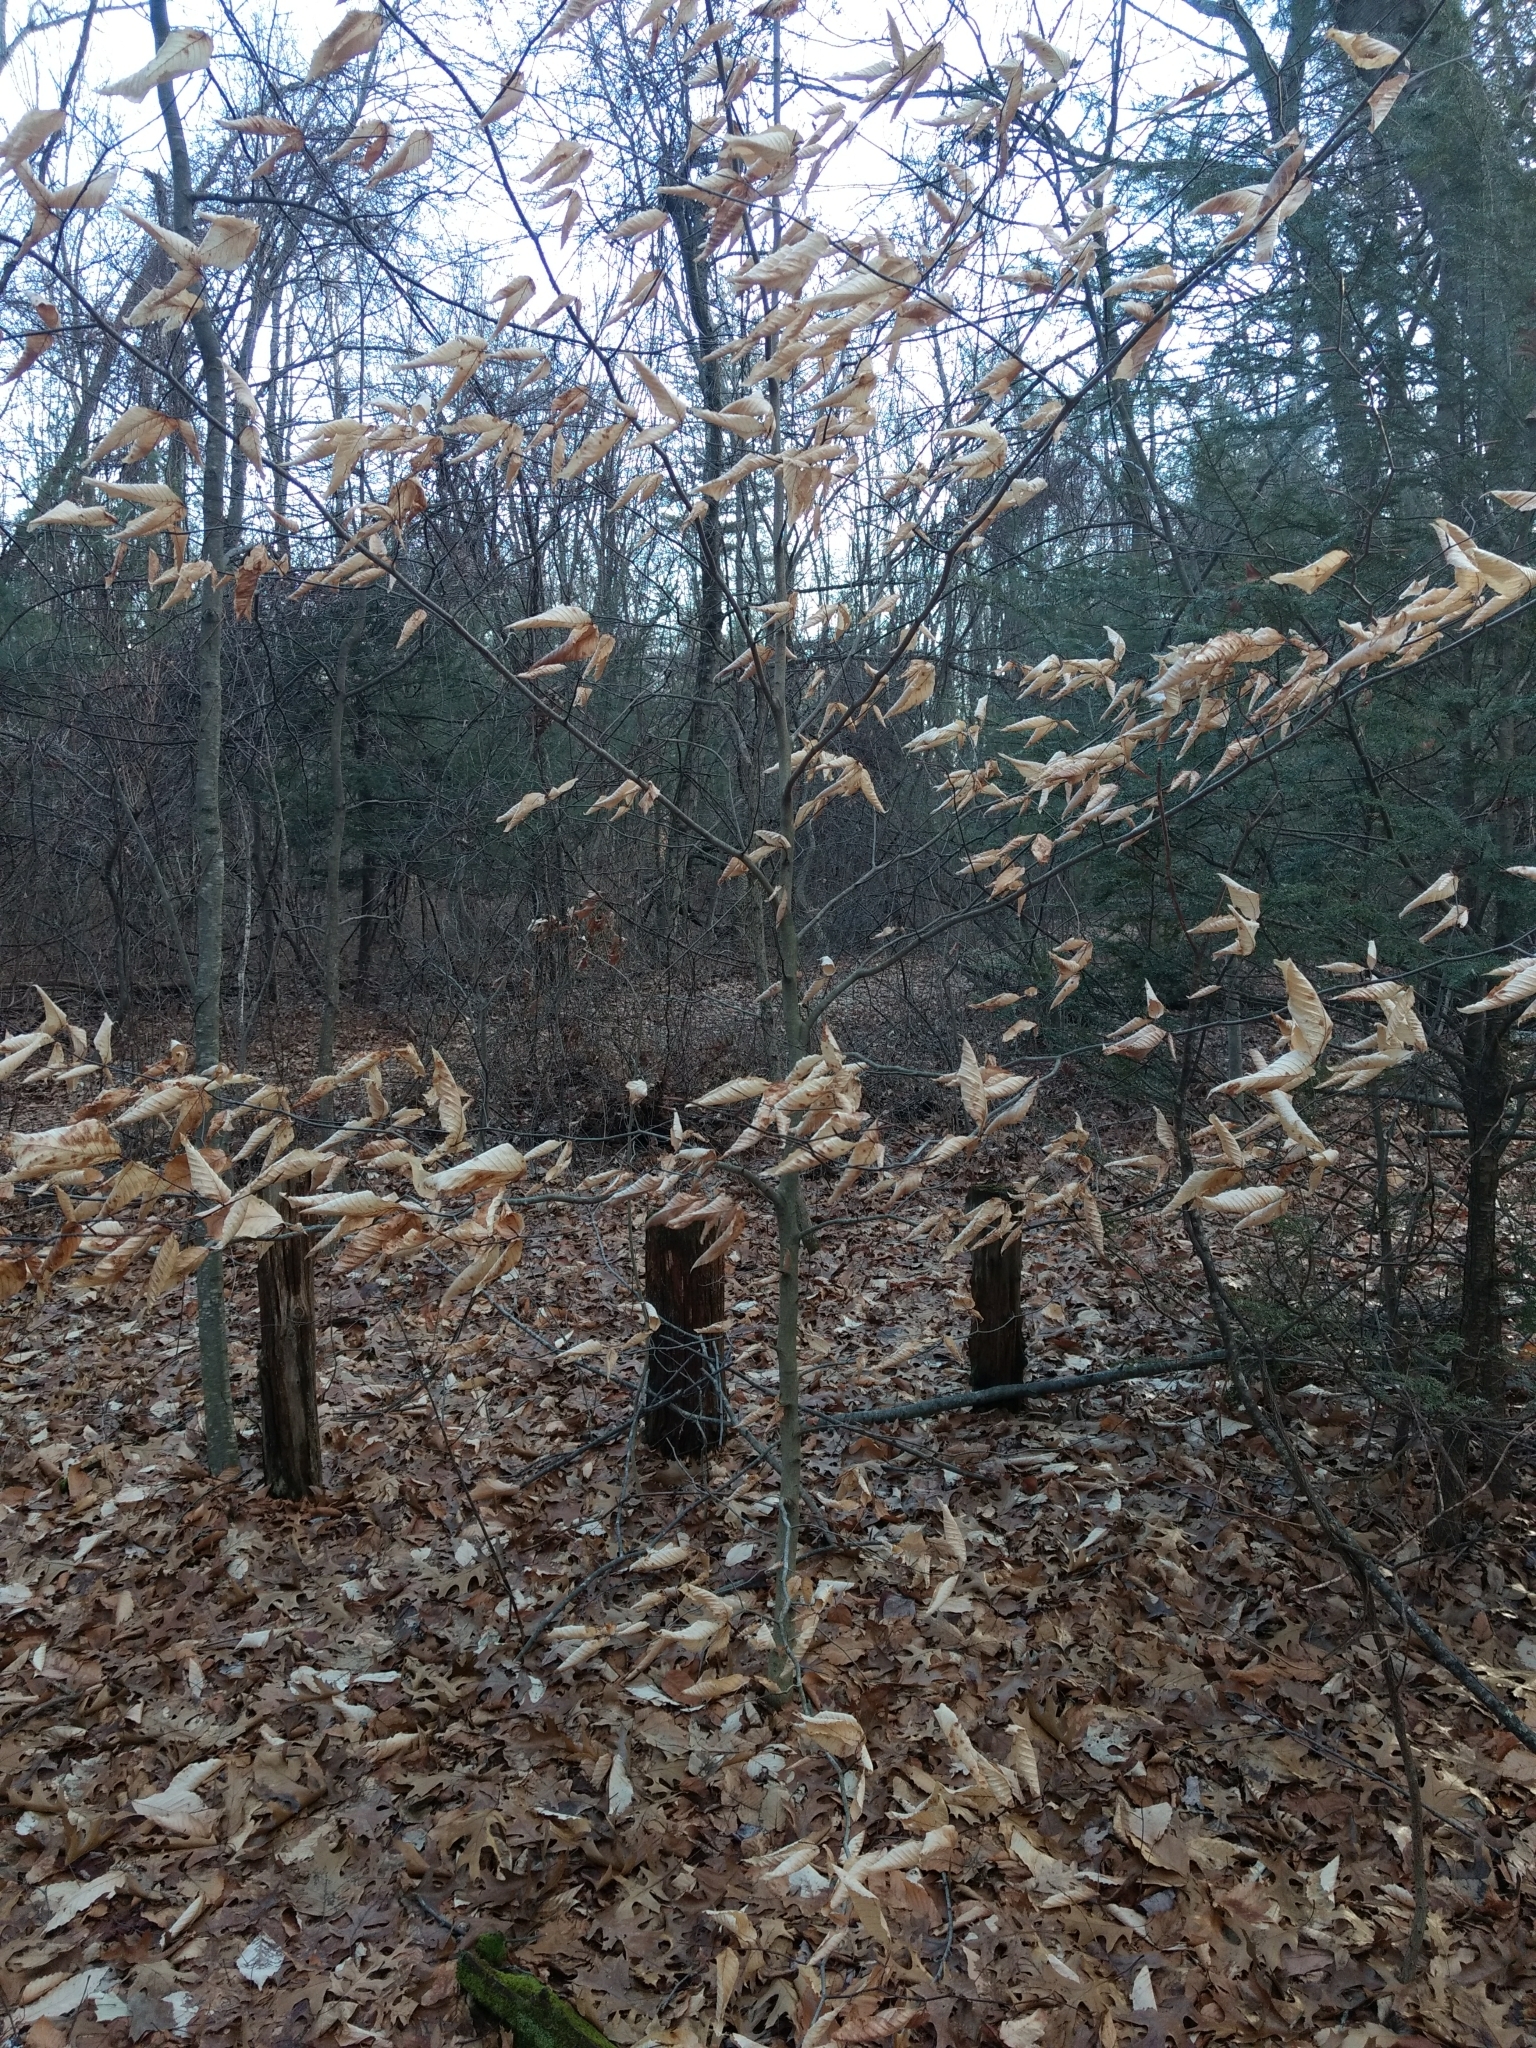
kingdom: Plantae
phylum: Tracheophyta
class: Magnoliopsida
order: Fagales
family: Fagaceae
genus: Fagus
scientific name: Fagus grandifolia
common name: American beech
